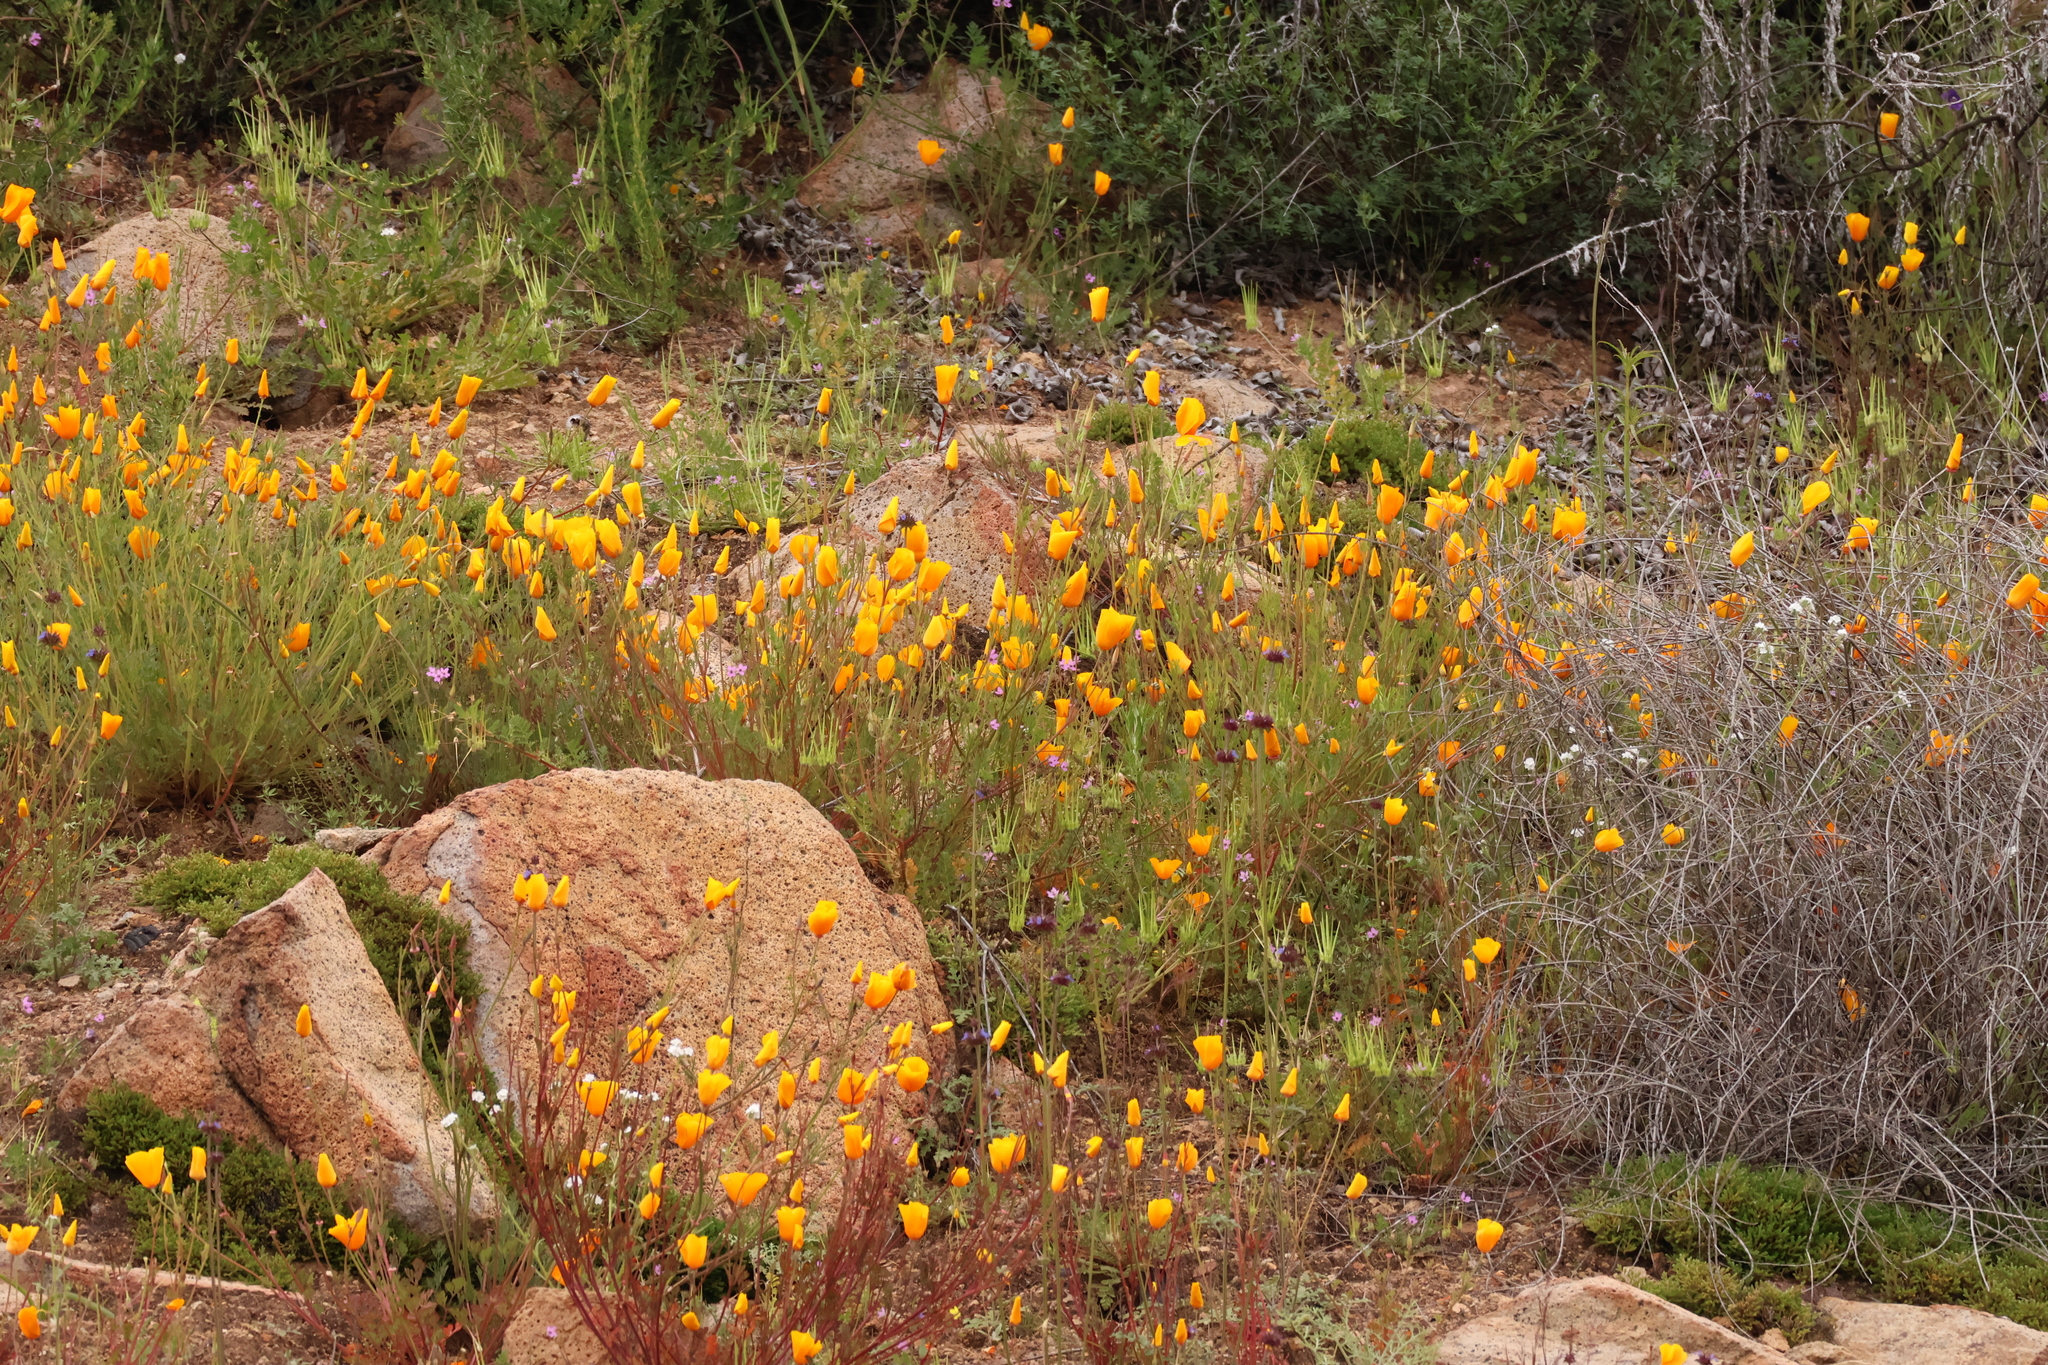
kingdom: Plantae
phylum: Tracheophyta
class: Magnoliopsida
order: Ranunculales
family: Papaveraceae
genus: Eschscholzia
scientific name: Eschscholzia californica
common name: California poppy
